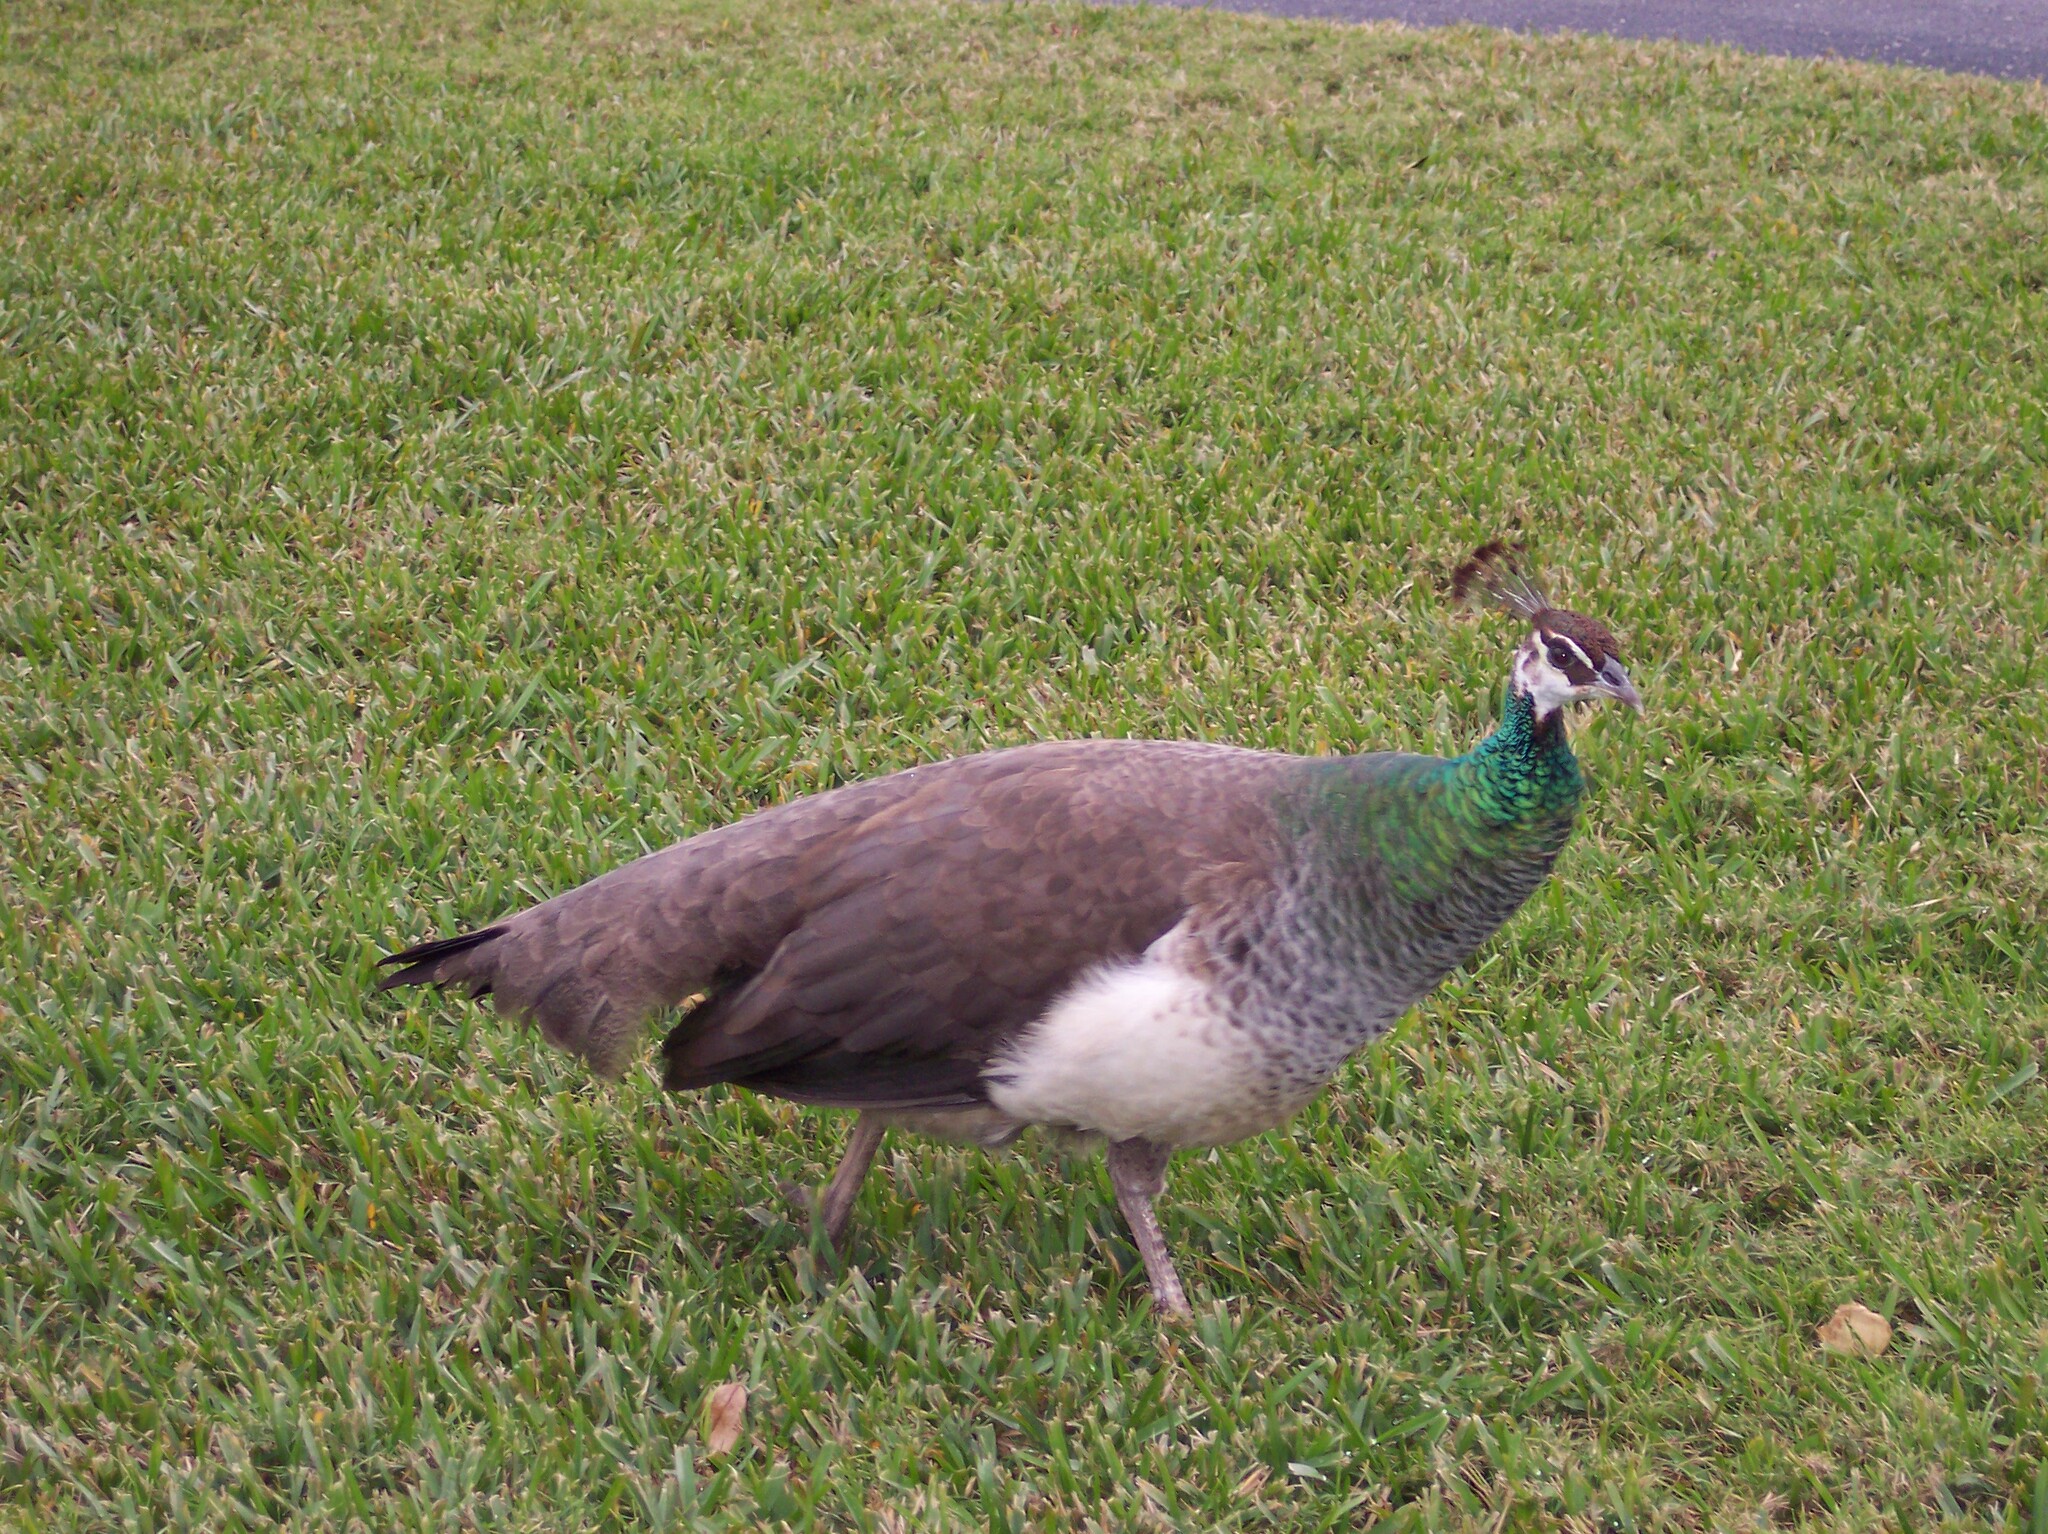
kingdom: Animalia
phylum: Chordata
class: Aves
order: Galliformes
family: Phasianidae
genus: Pavo
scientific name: Pavo cristatus
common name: Indian peafowl
